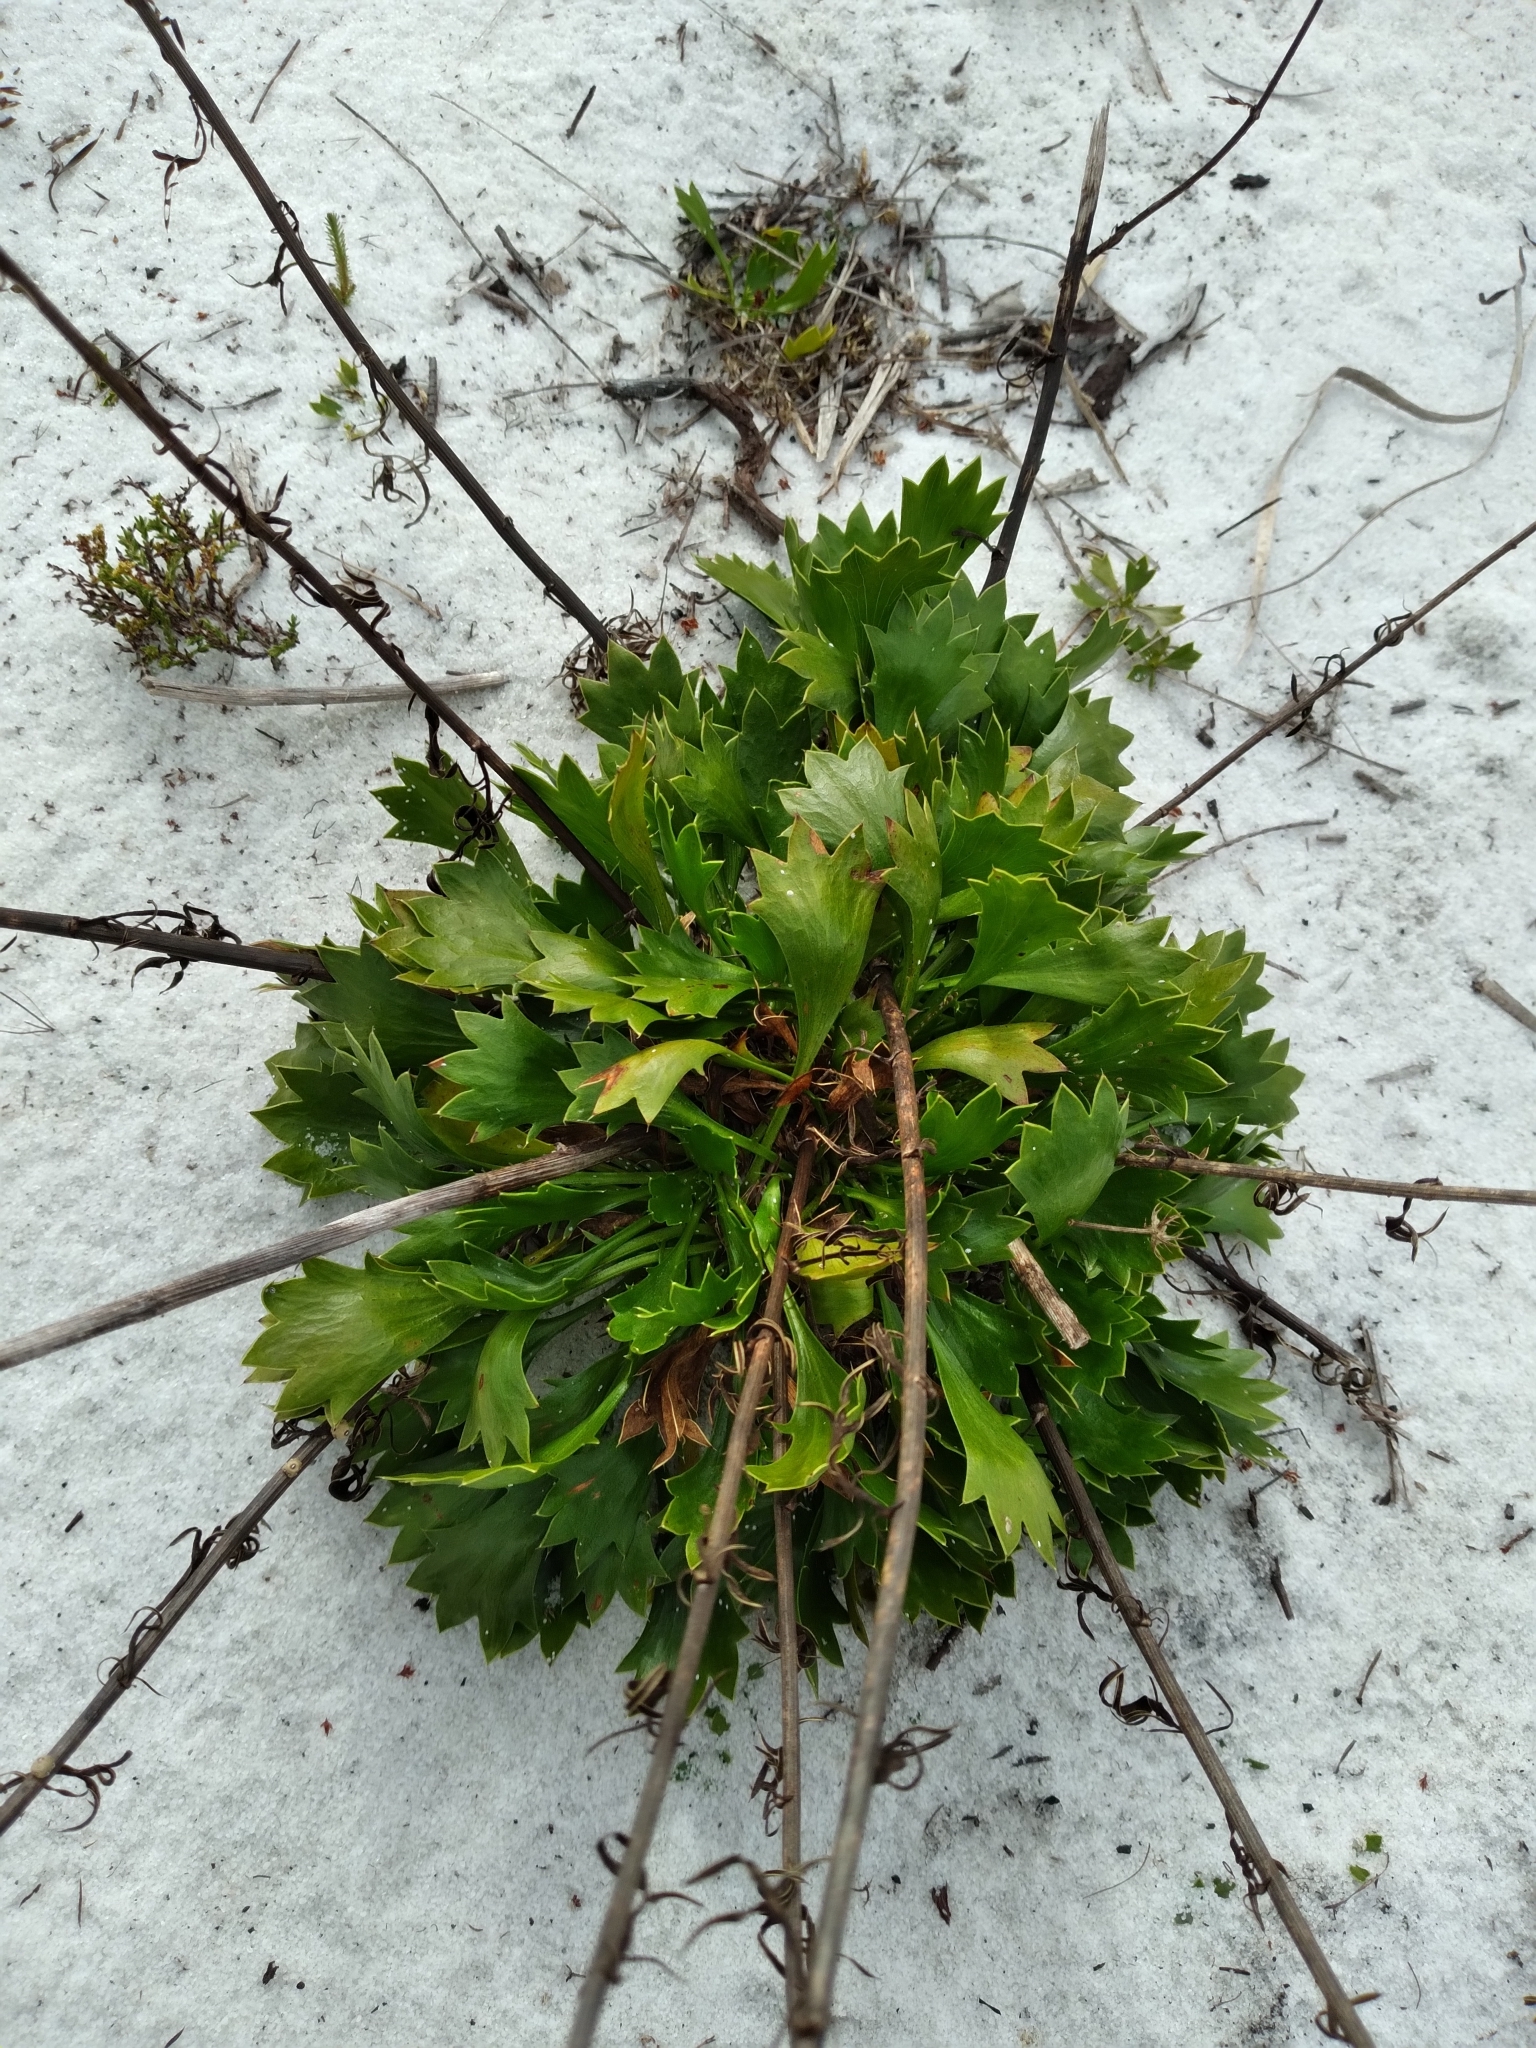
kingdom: Plantae
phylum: Tracheophyta
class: Magnoliopsida
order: Apiales
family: Apiaceae
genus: Eryngium
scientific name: Eryngium cuneifolium
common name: Snakeroot
